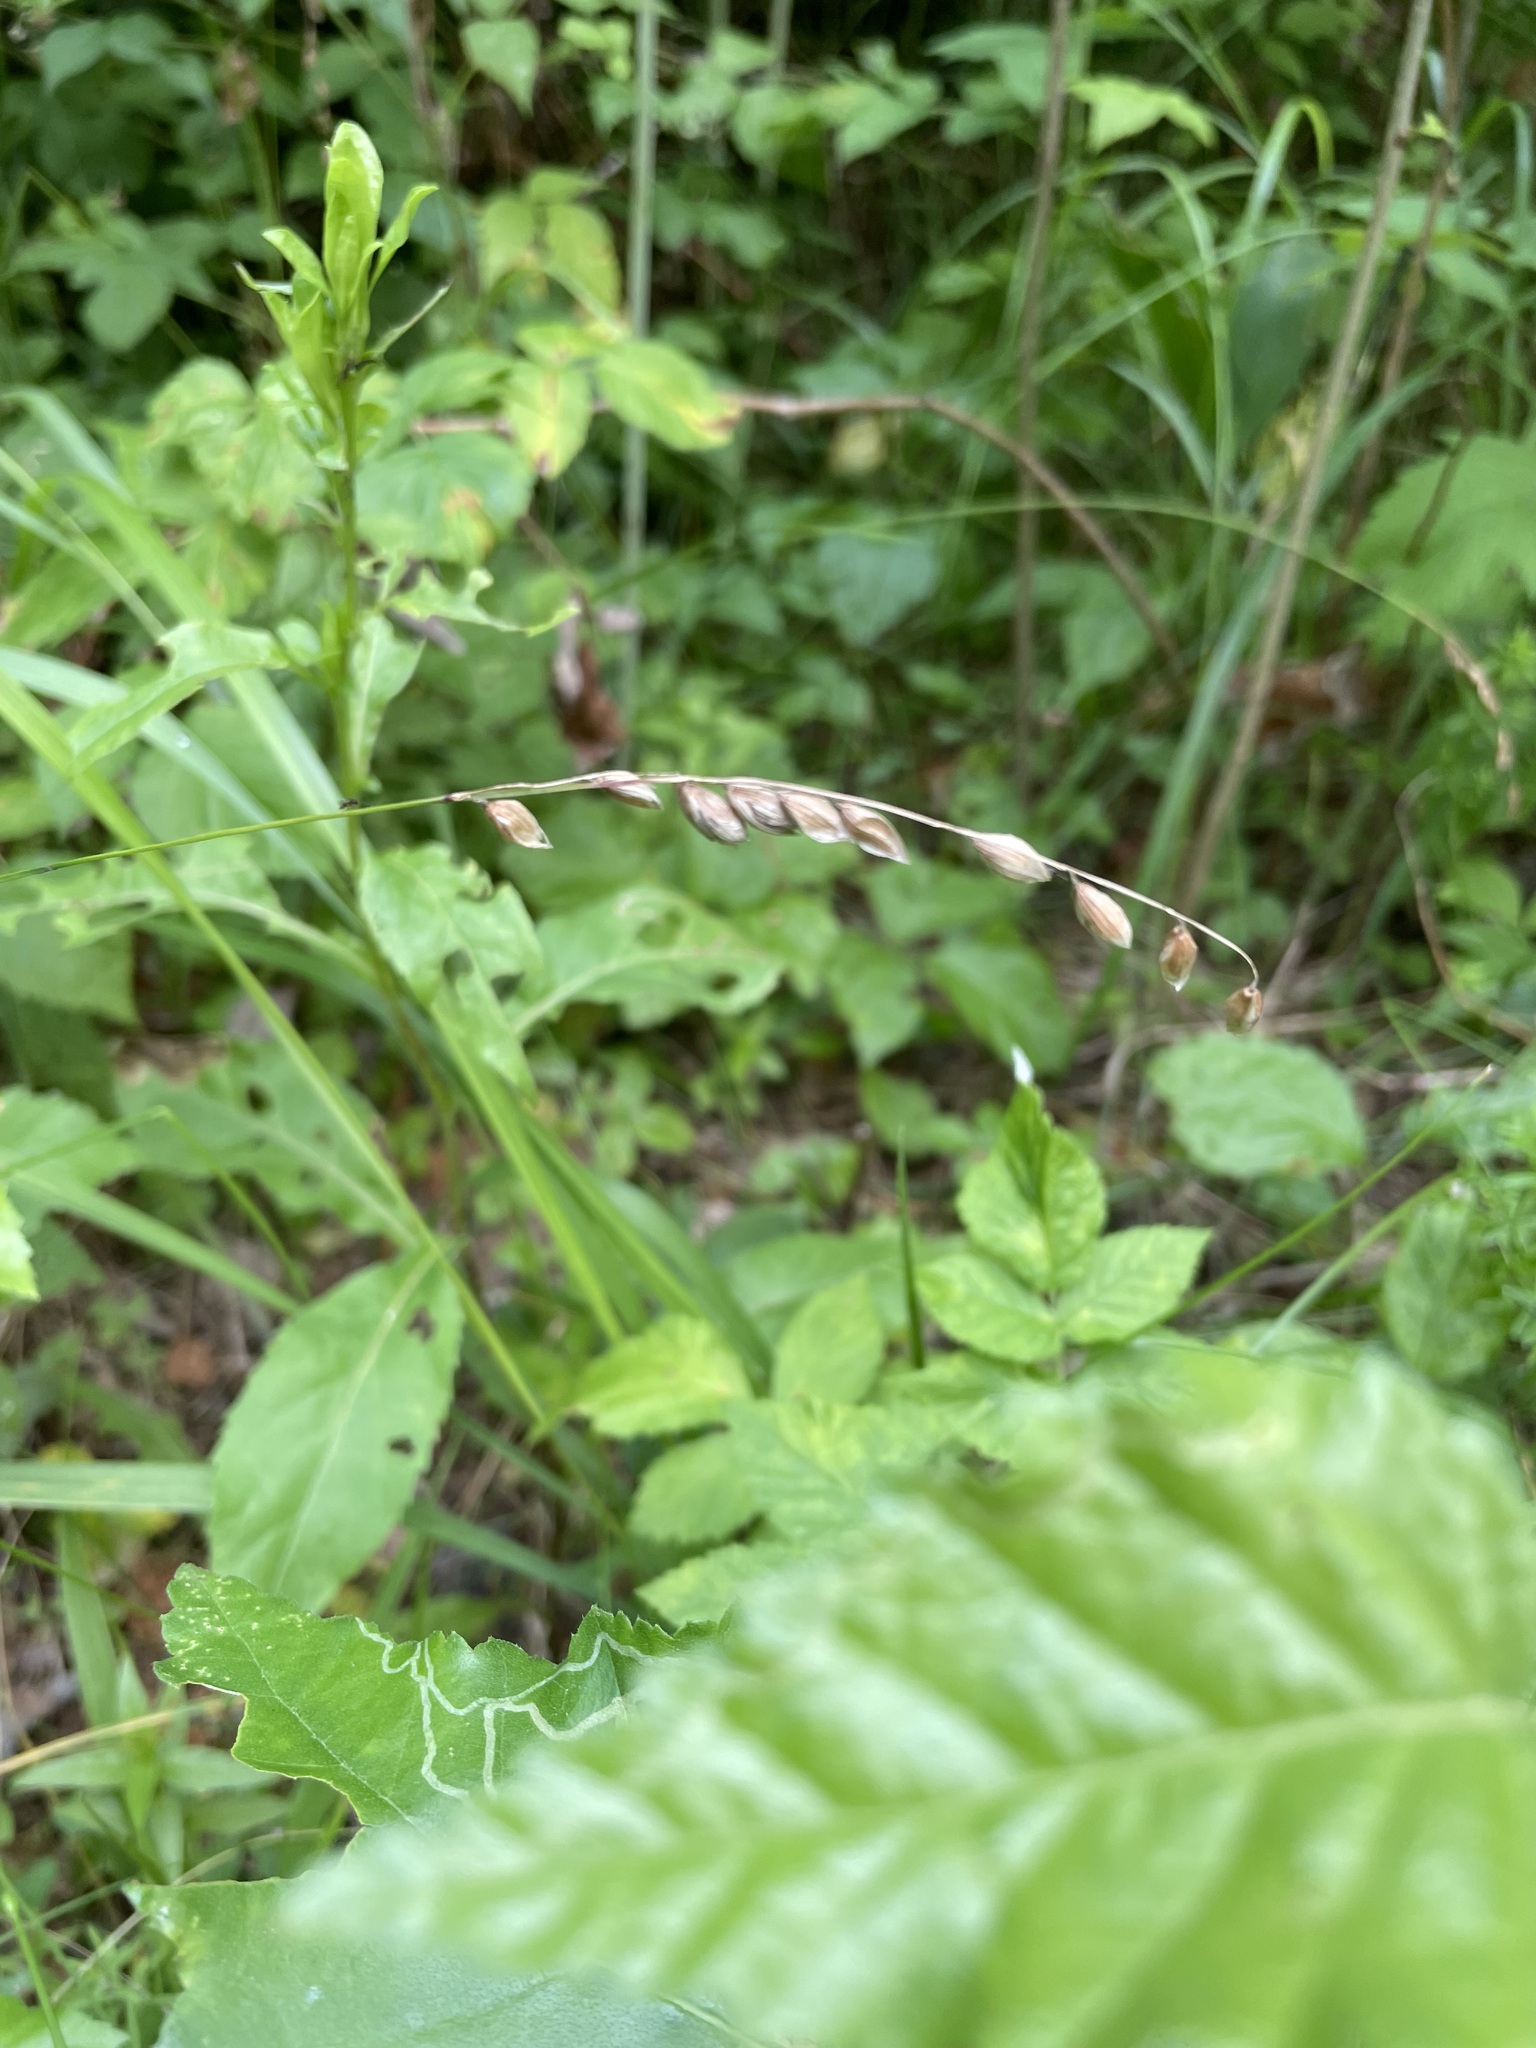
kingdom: Plantae
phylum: Tracheophyta
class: Liliopsida
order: Poales
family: Poaceae
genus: Melica
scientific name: Melica nutans
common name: Mountain melick
